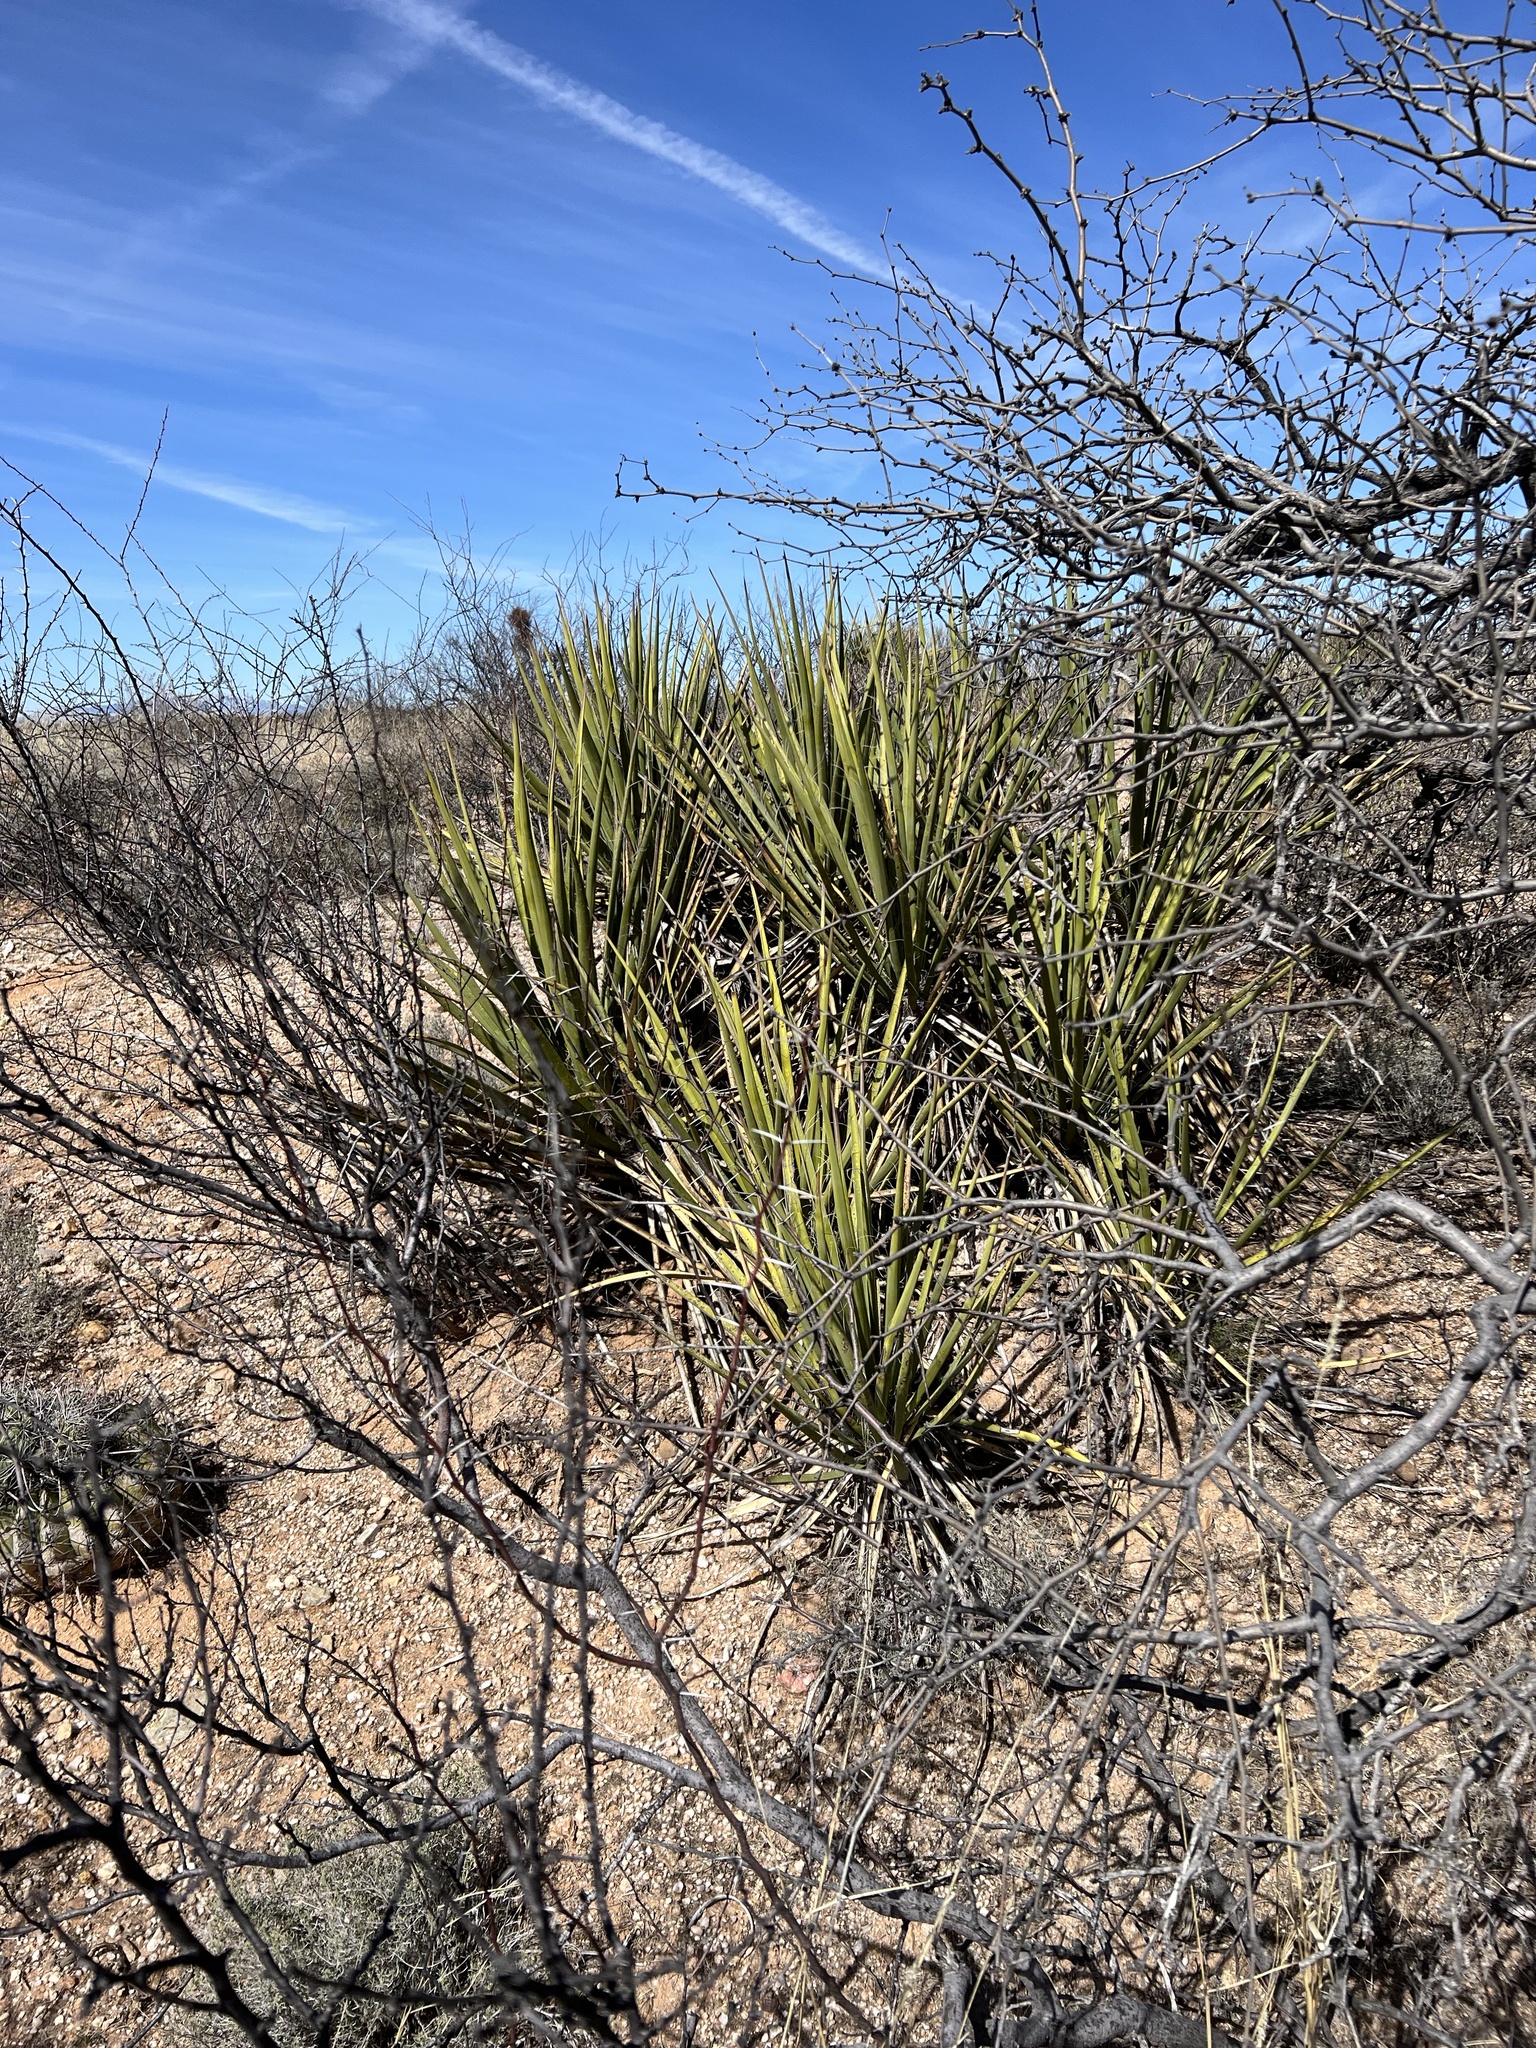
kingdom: Plantae
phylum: Tracheophyta
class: Liliopsida
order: Asparagales
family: Asparagaceae
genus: Yucca
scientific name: Yucca baccata
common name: Banana yucca
